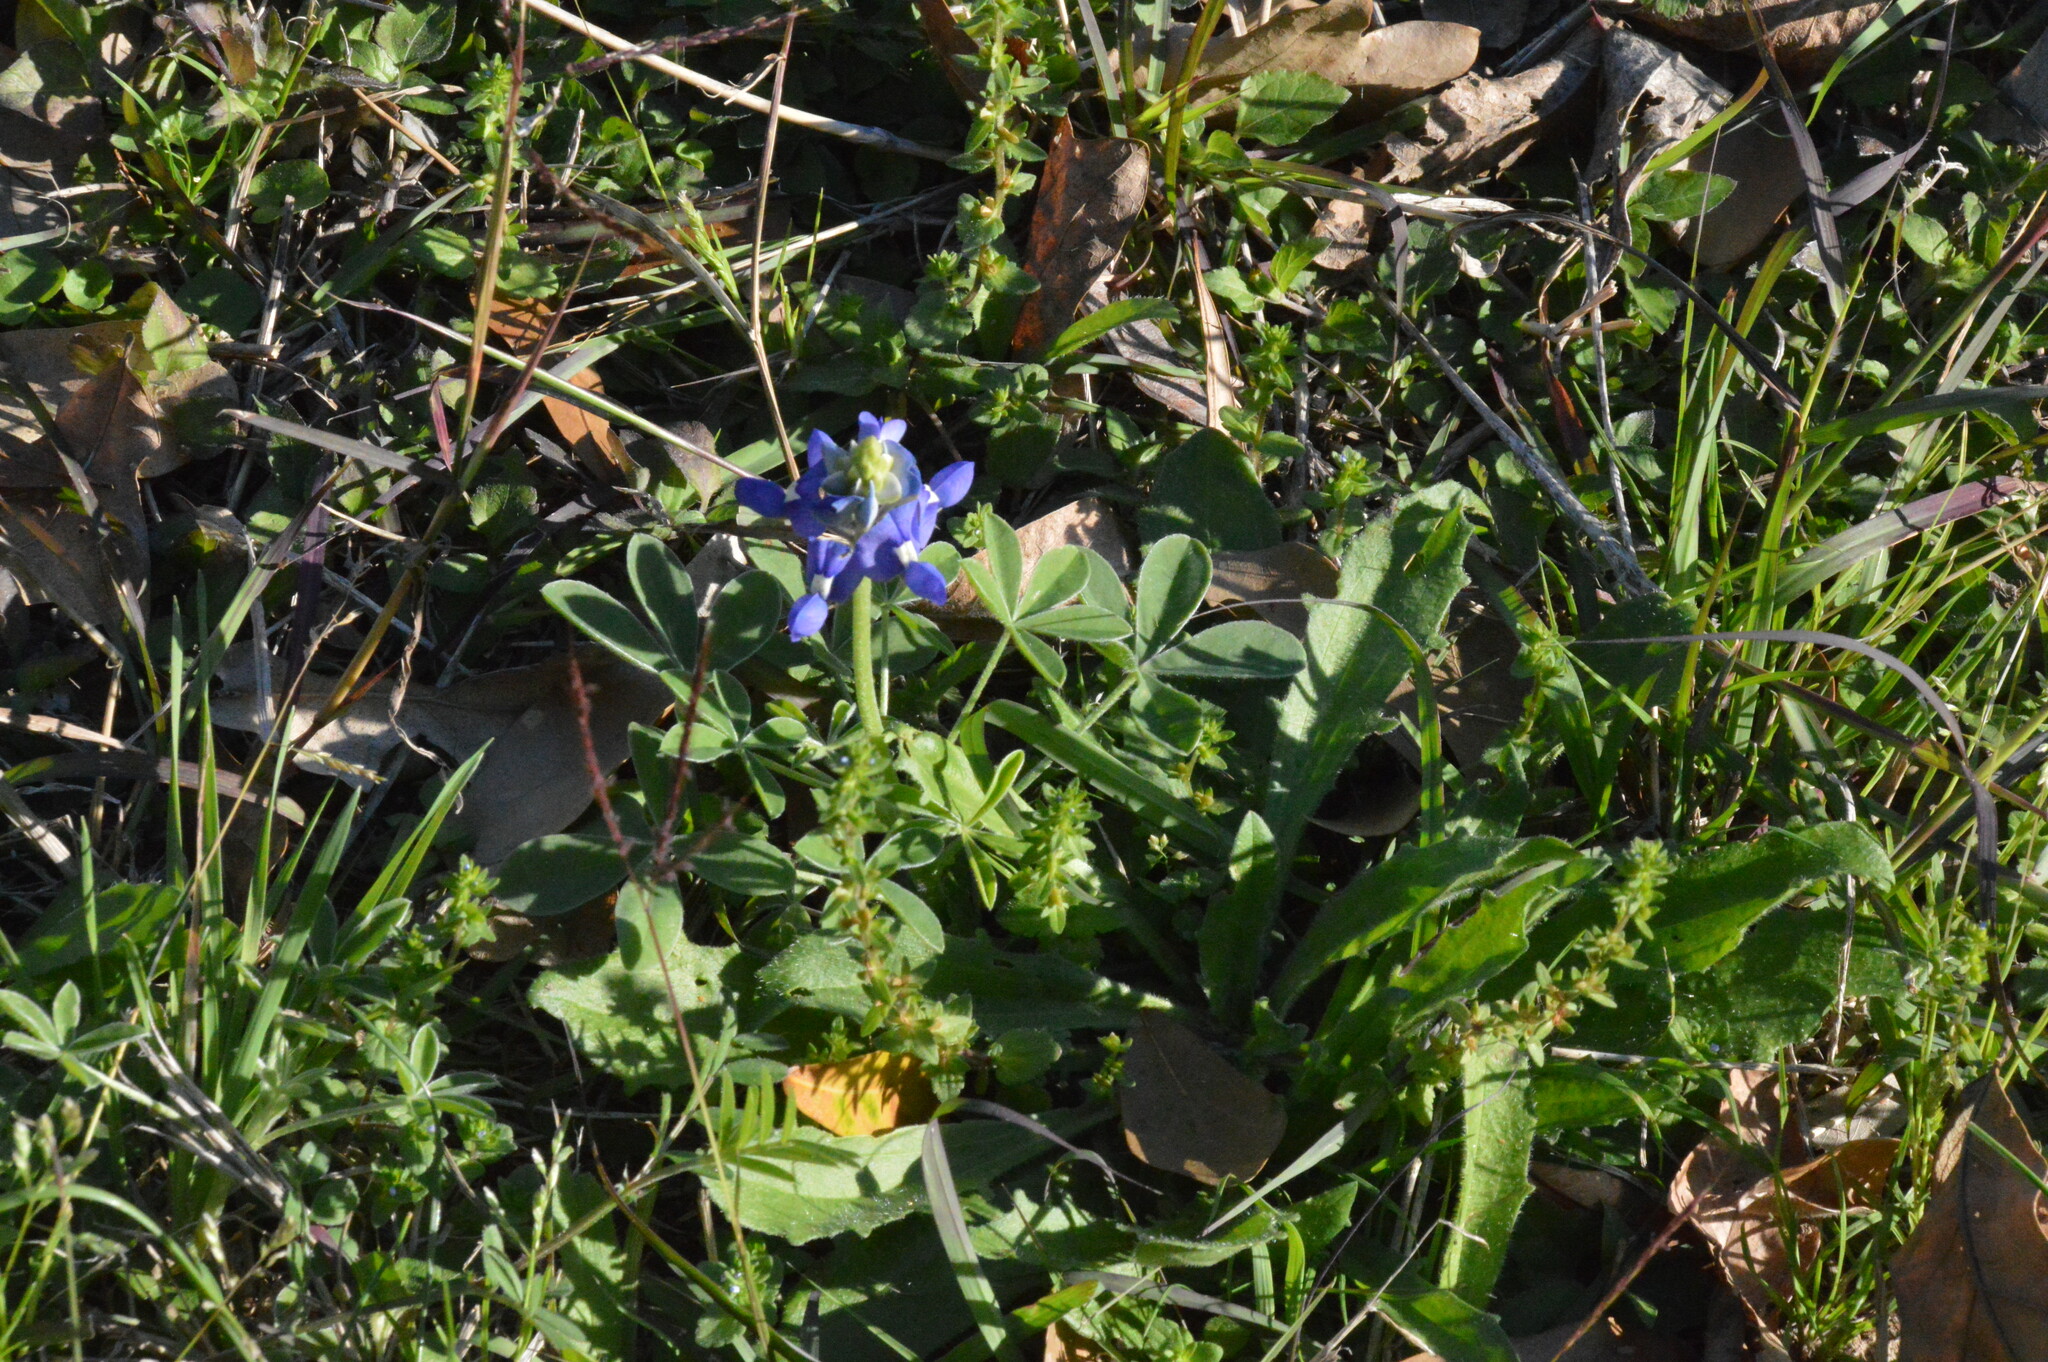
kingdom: Plantae
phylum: Tracheophyta
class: Magnoliopsida
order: Fabales
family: Fabaceae
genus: Lupinus
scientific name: Lupinus texensis
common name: Texas bluebonnet
